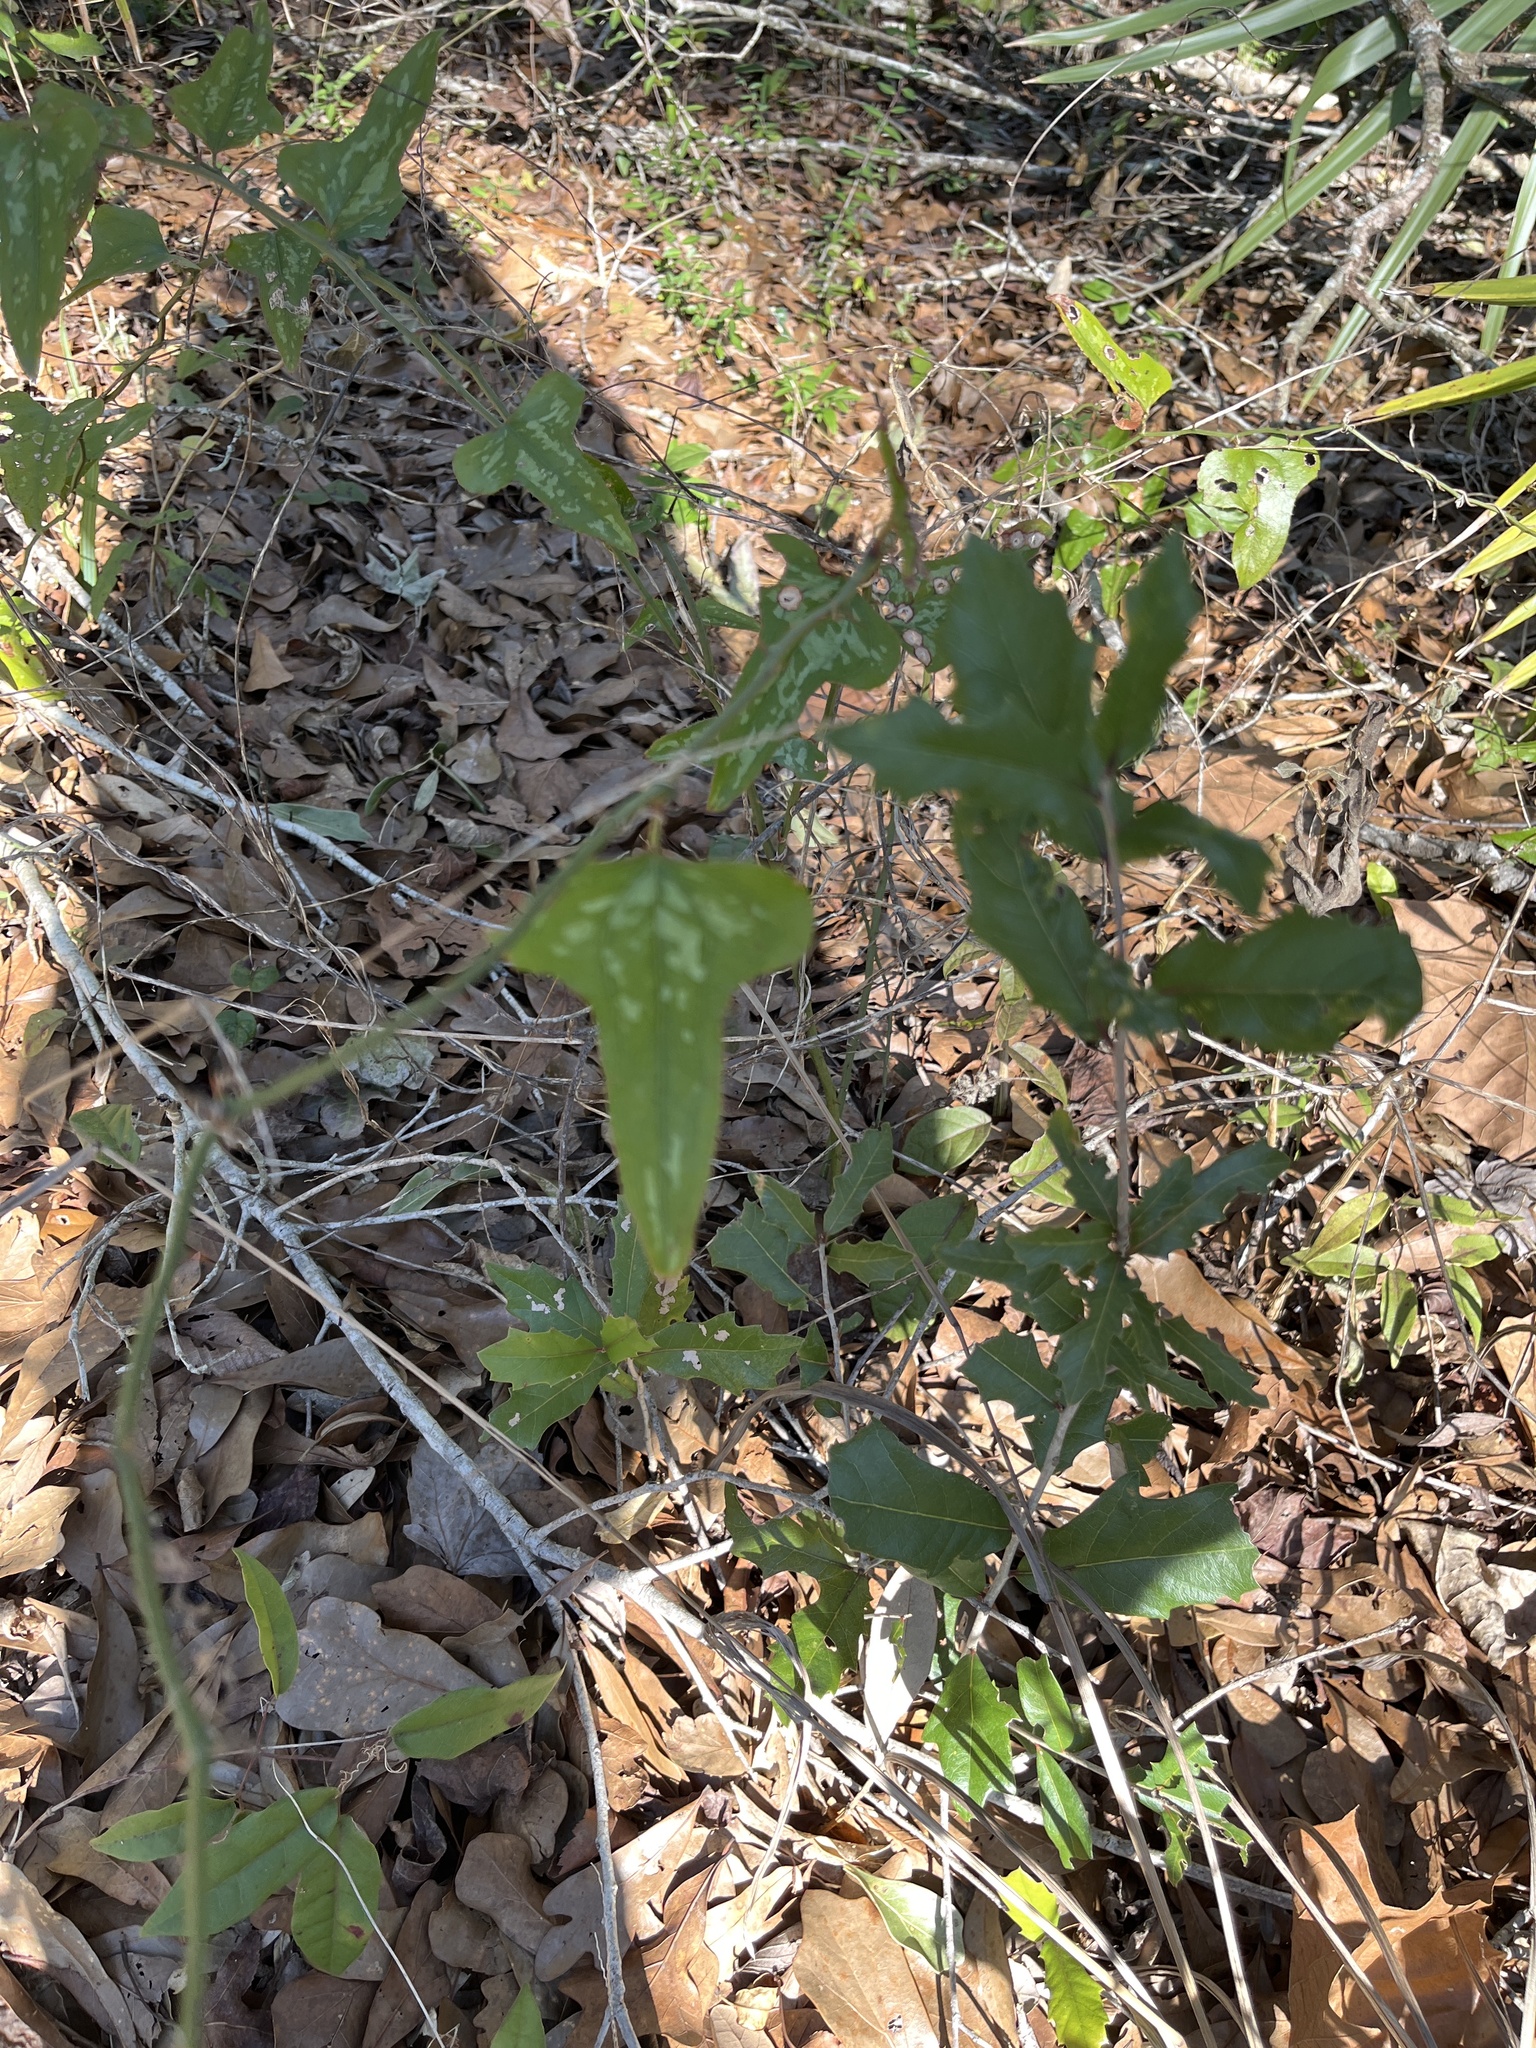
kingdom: Plantae
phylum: Tracheophyta
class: Liliopsida
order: Liliales
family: Smilacaceae
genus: Smilax
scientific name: Smilax bona-nox
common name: Catbrier
